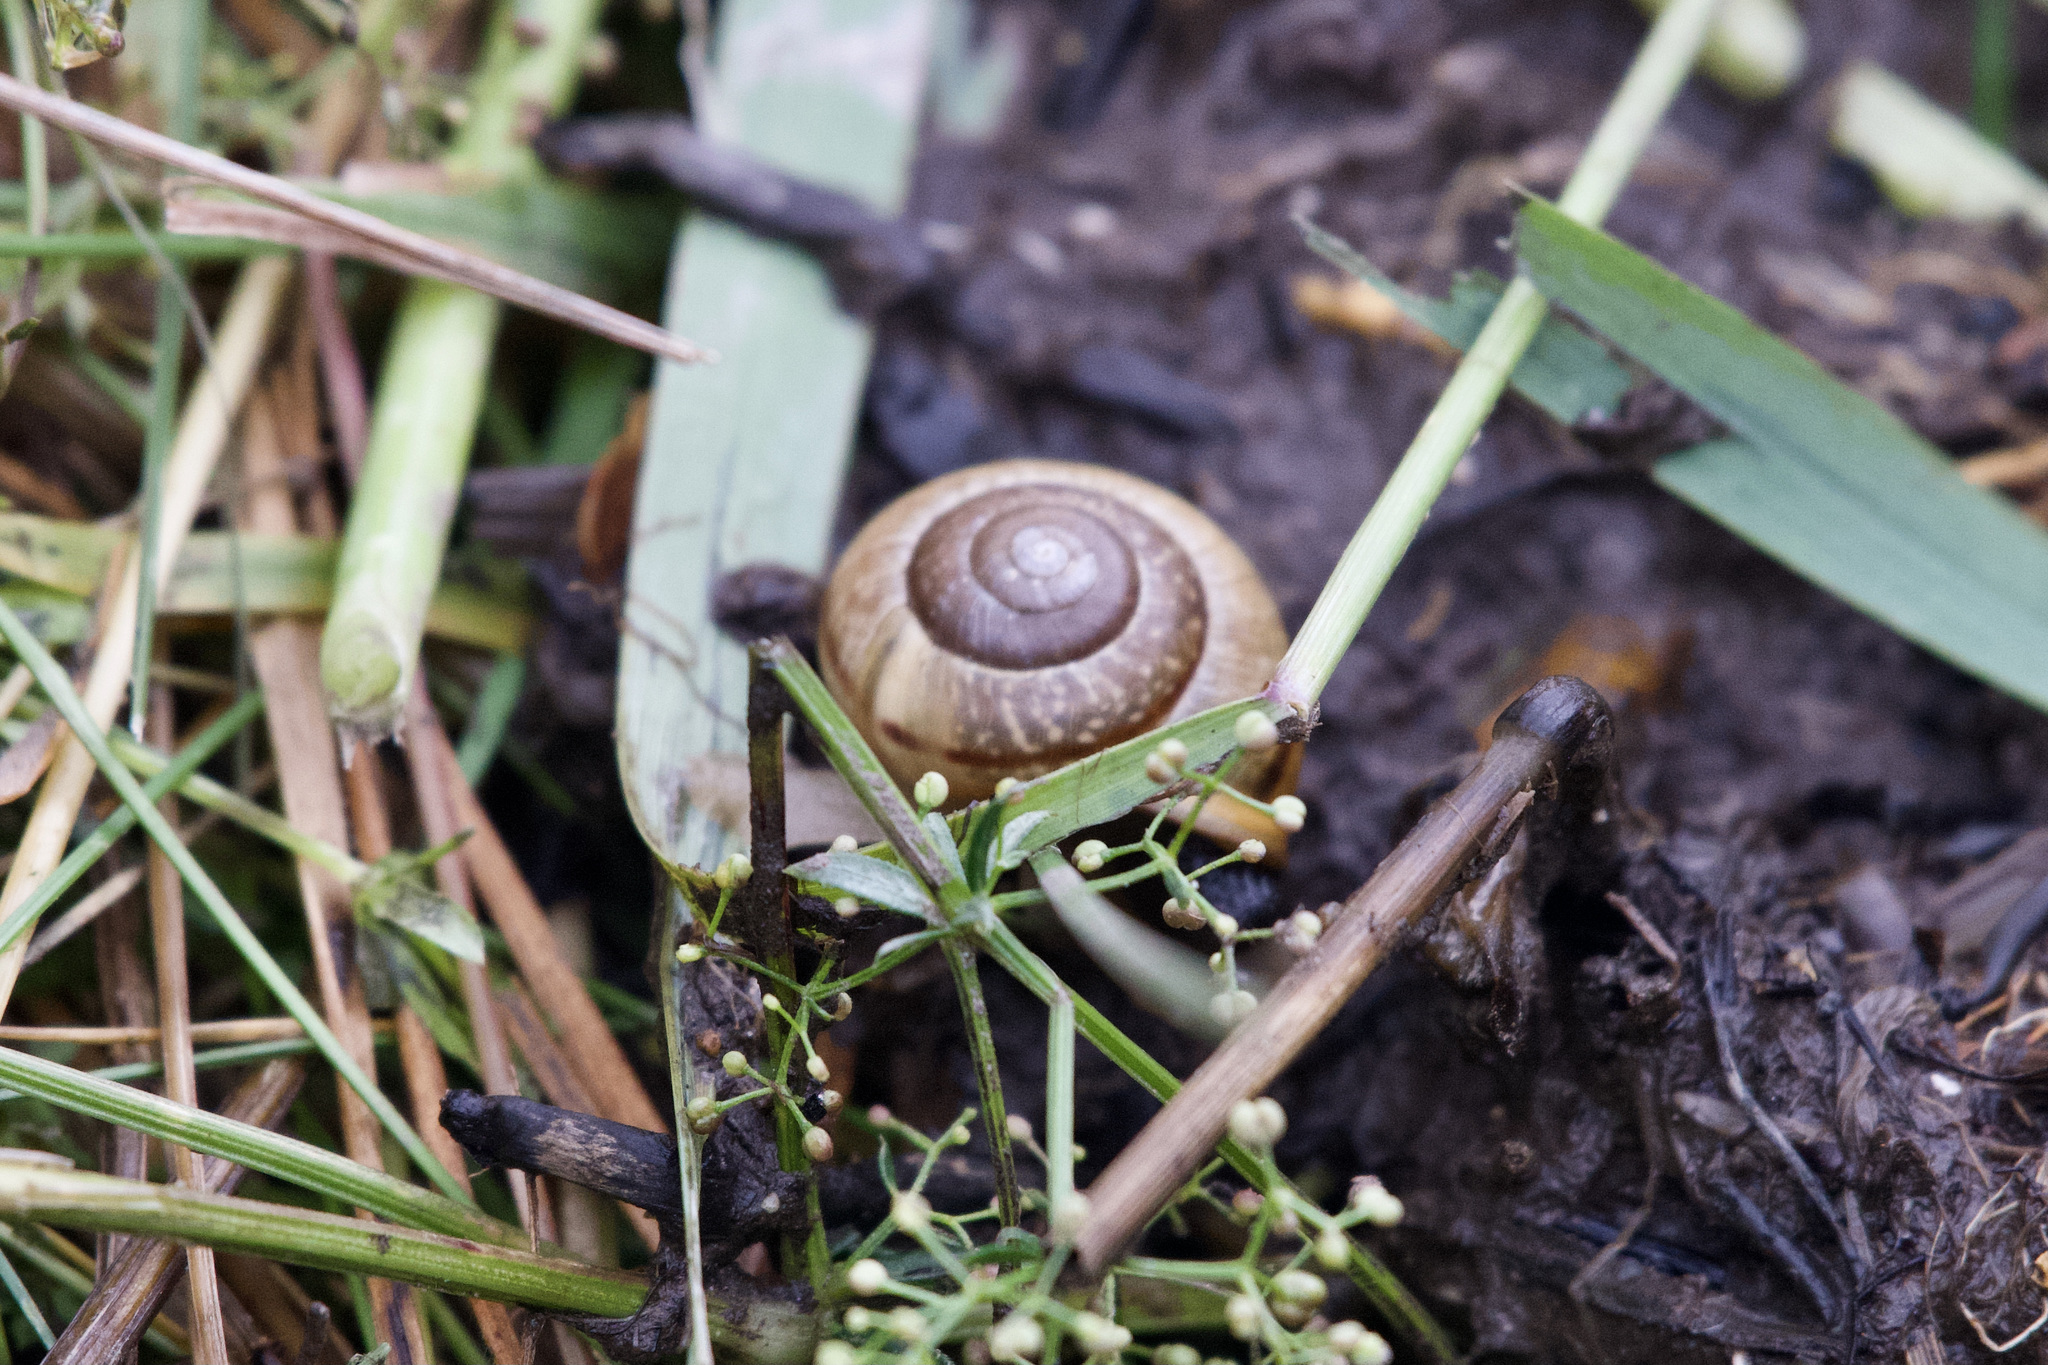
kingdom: Animalia
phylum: Mollusca
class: Gastropoda
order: Stylommatophora
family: Helicidae
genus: Arianta
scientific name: Arianta arbustorum
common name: Copse snail
